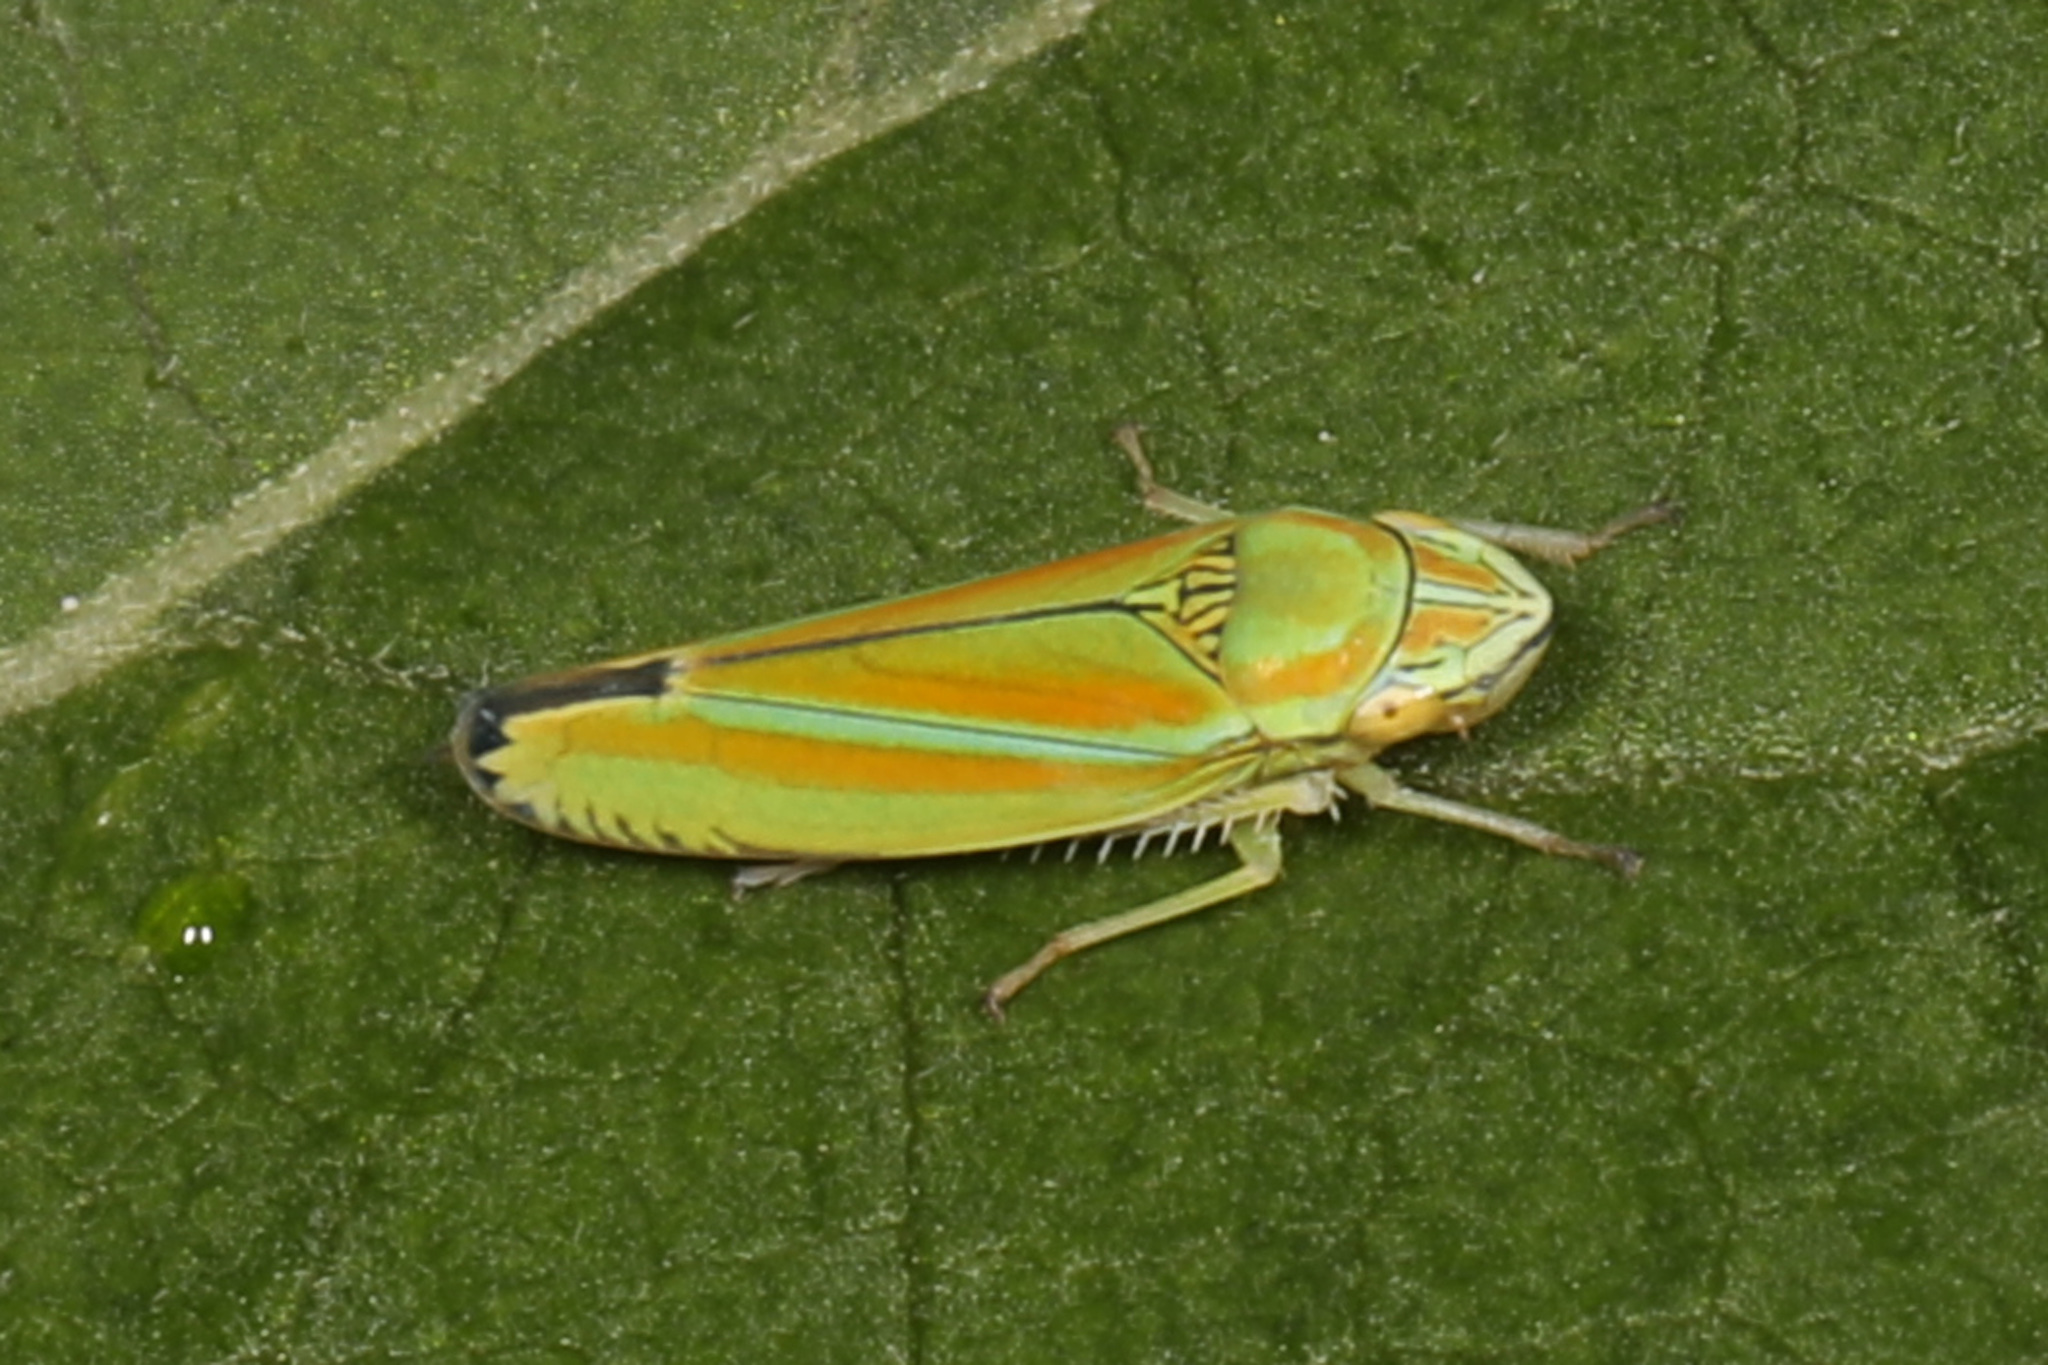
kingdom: Animalia
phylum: Arthropoda
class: Insecta
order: Hemiptera
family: Cicadellidae
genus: Graphocephala
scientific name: Graphocephala versuta
